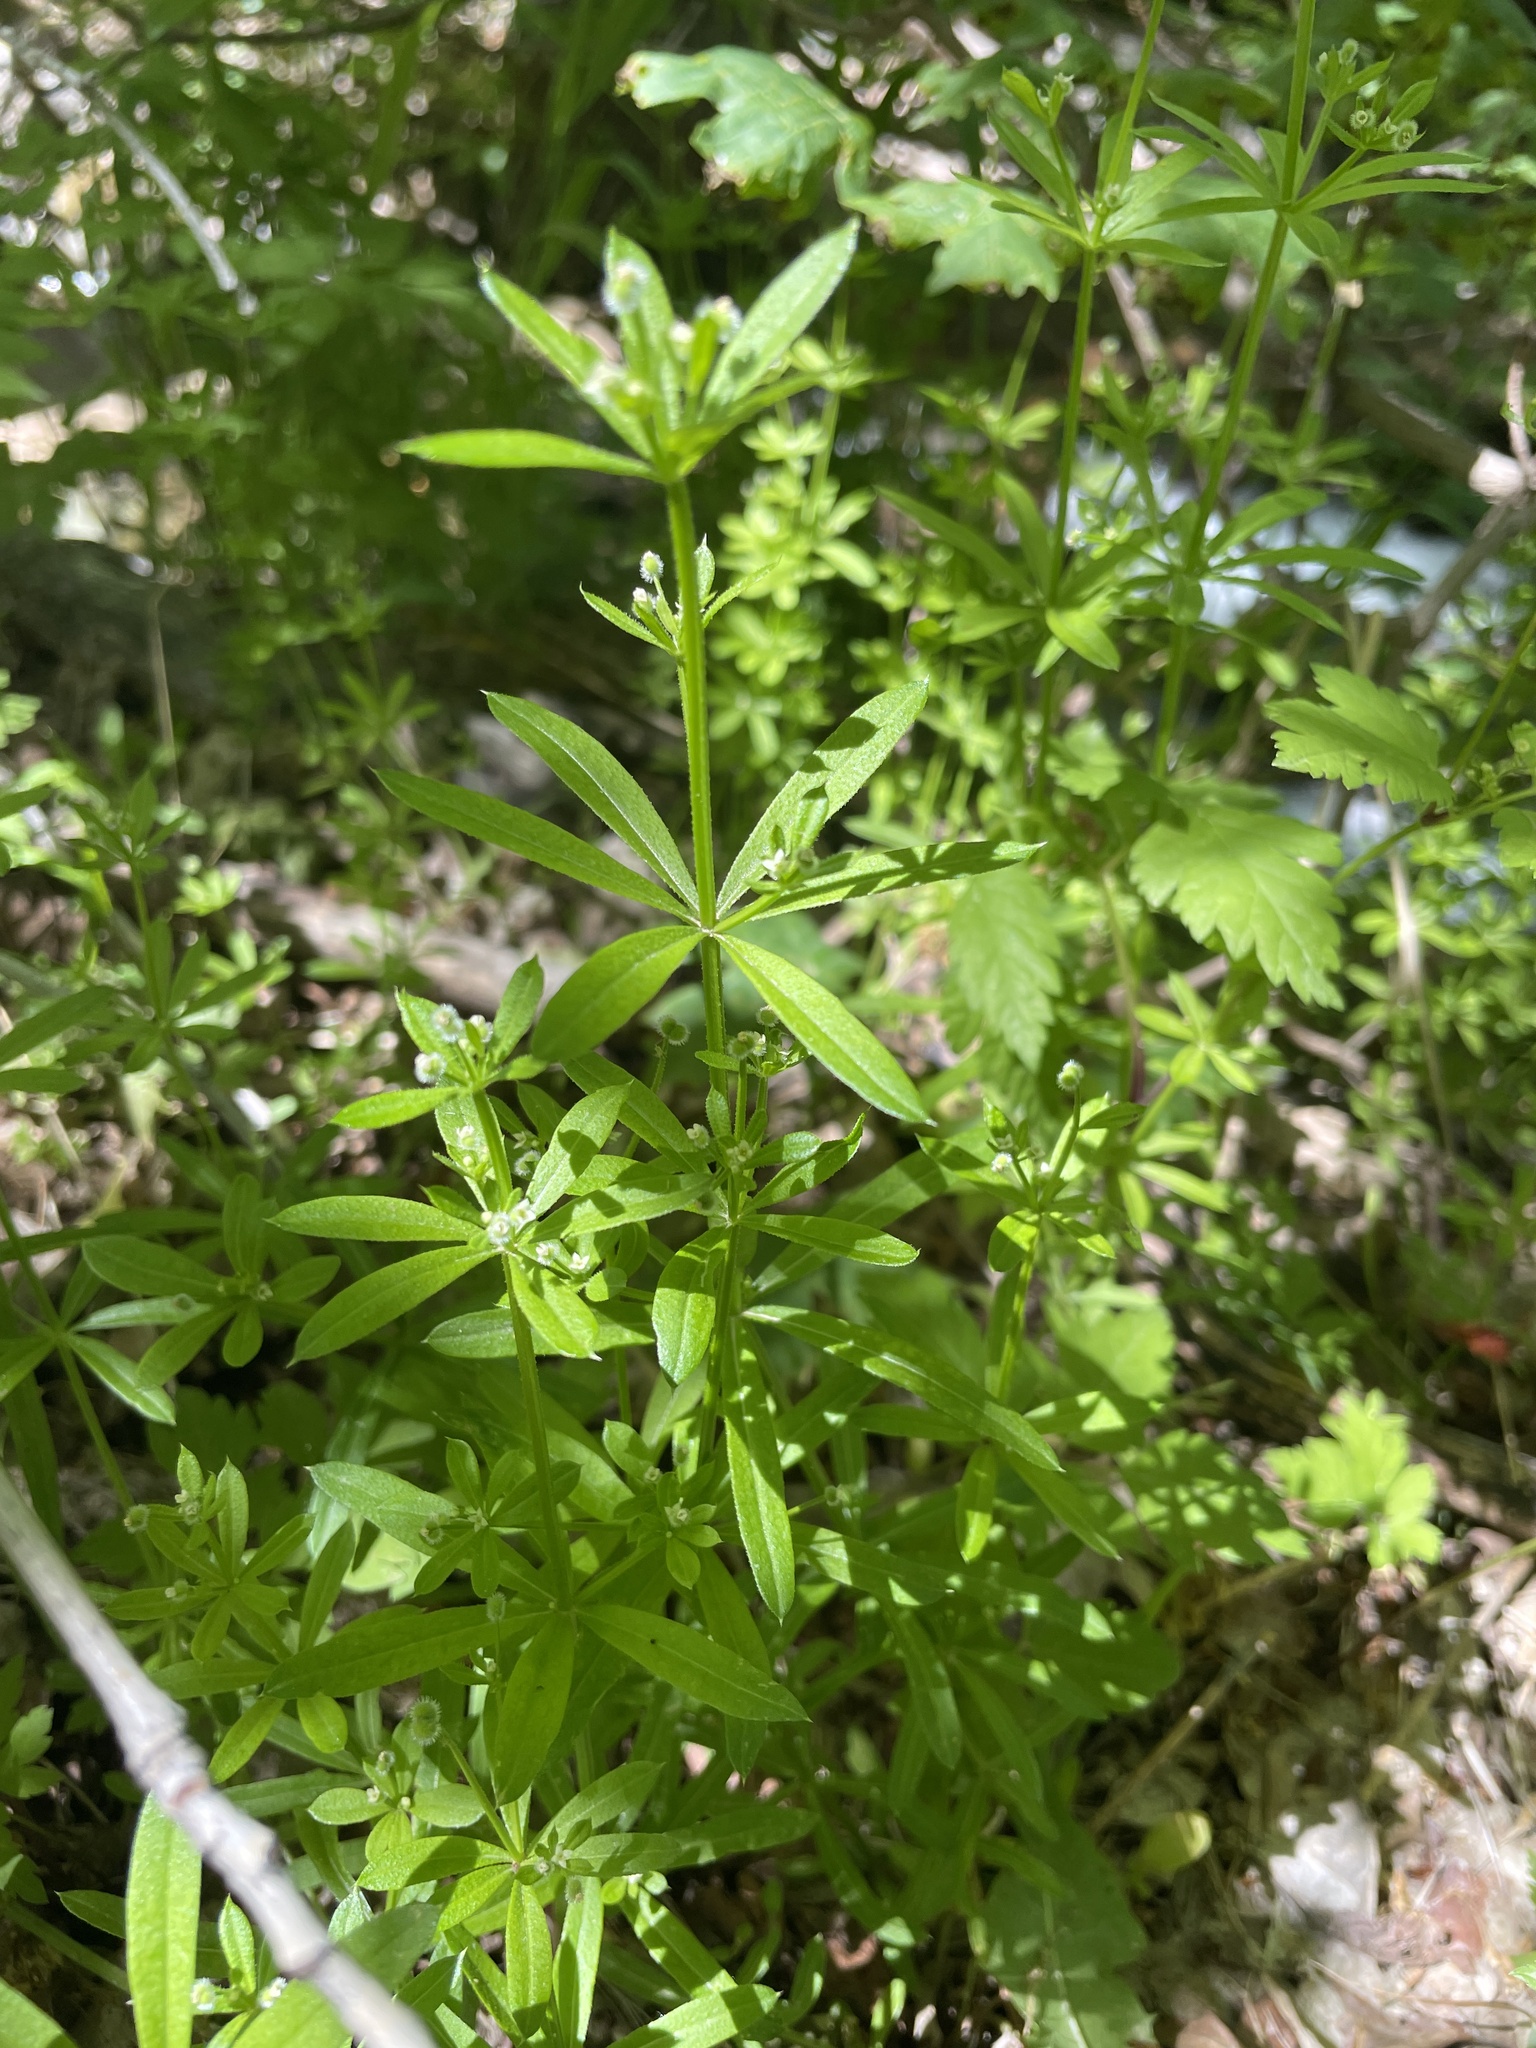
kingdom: Plantae
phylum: Tracheophyta
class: Magnoliopsida
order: Gentianales
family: Rubiaceae
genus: Galium
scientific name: Galium aparine
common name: Cleavers
